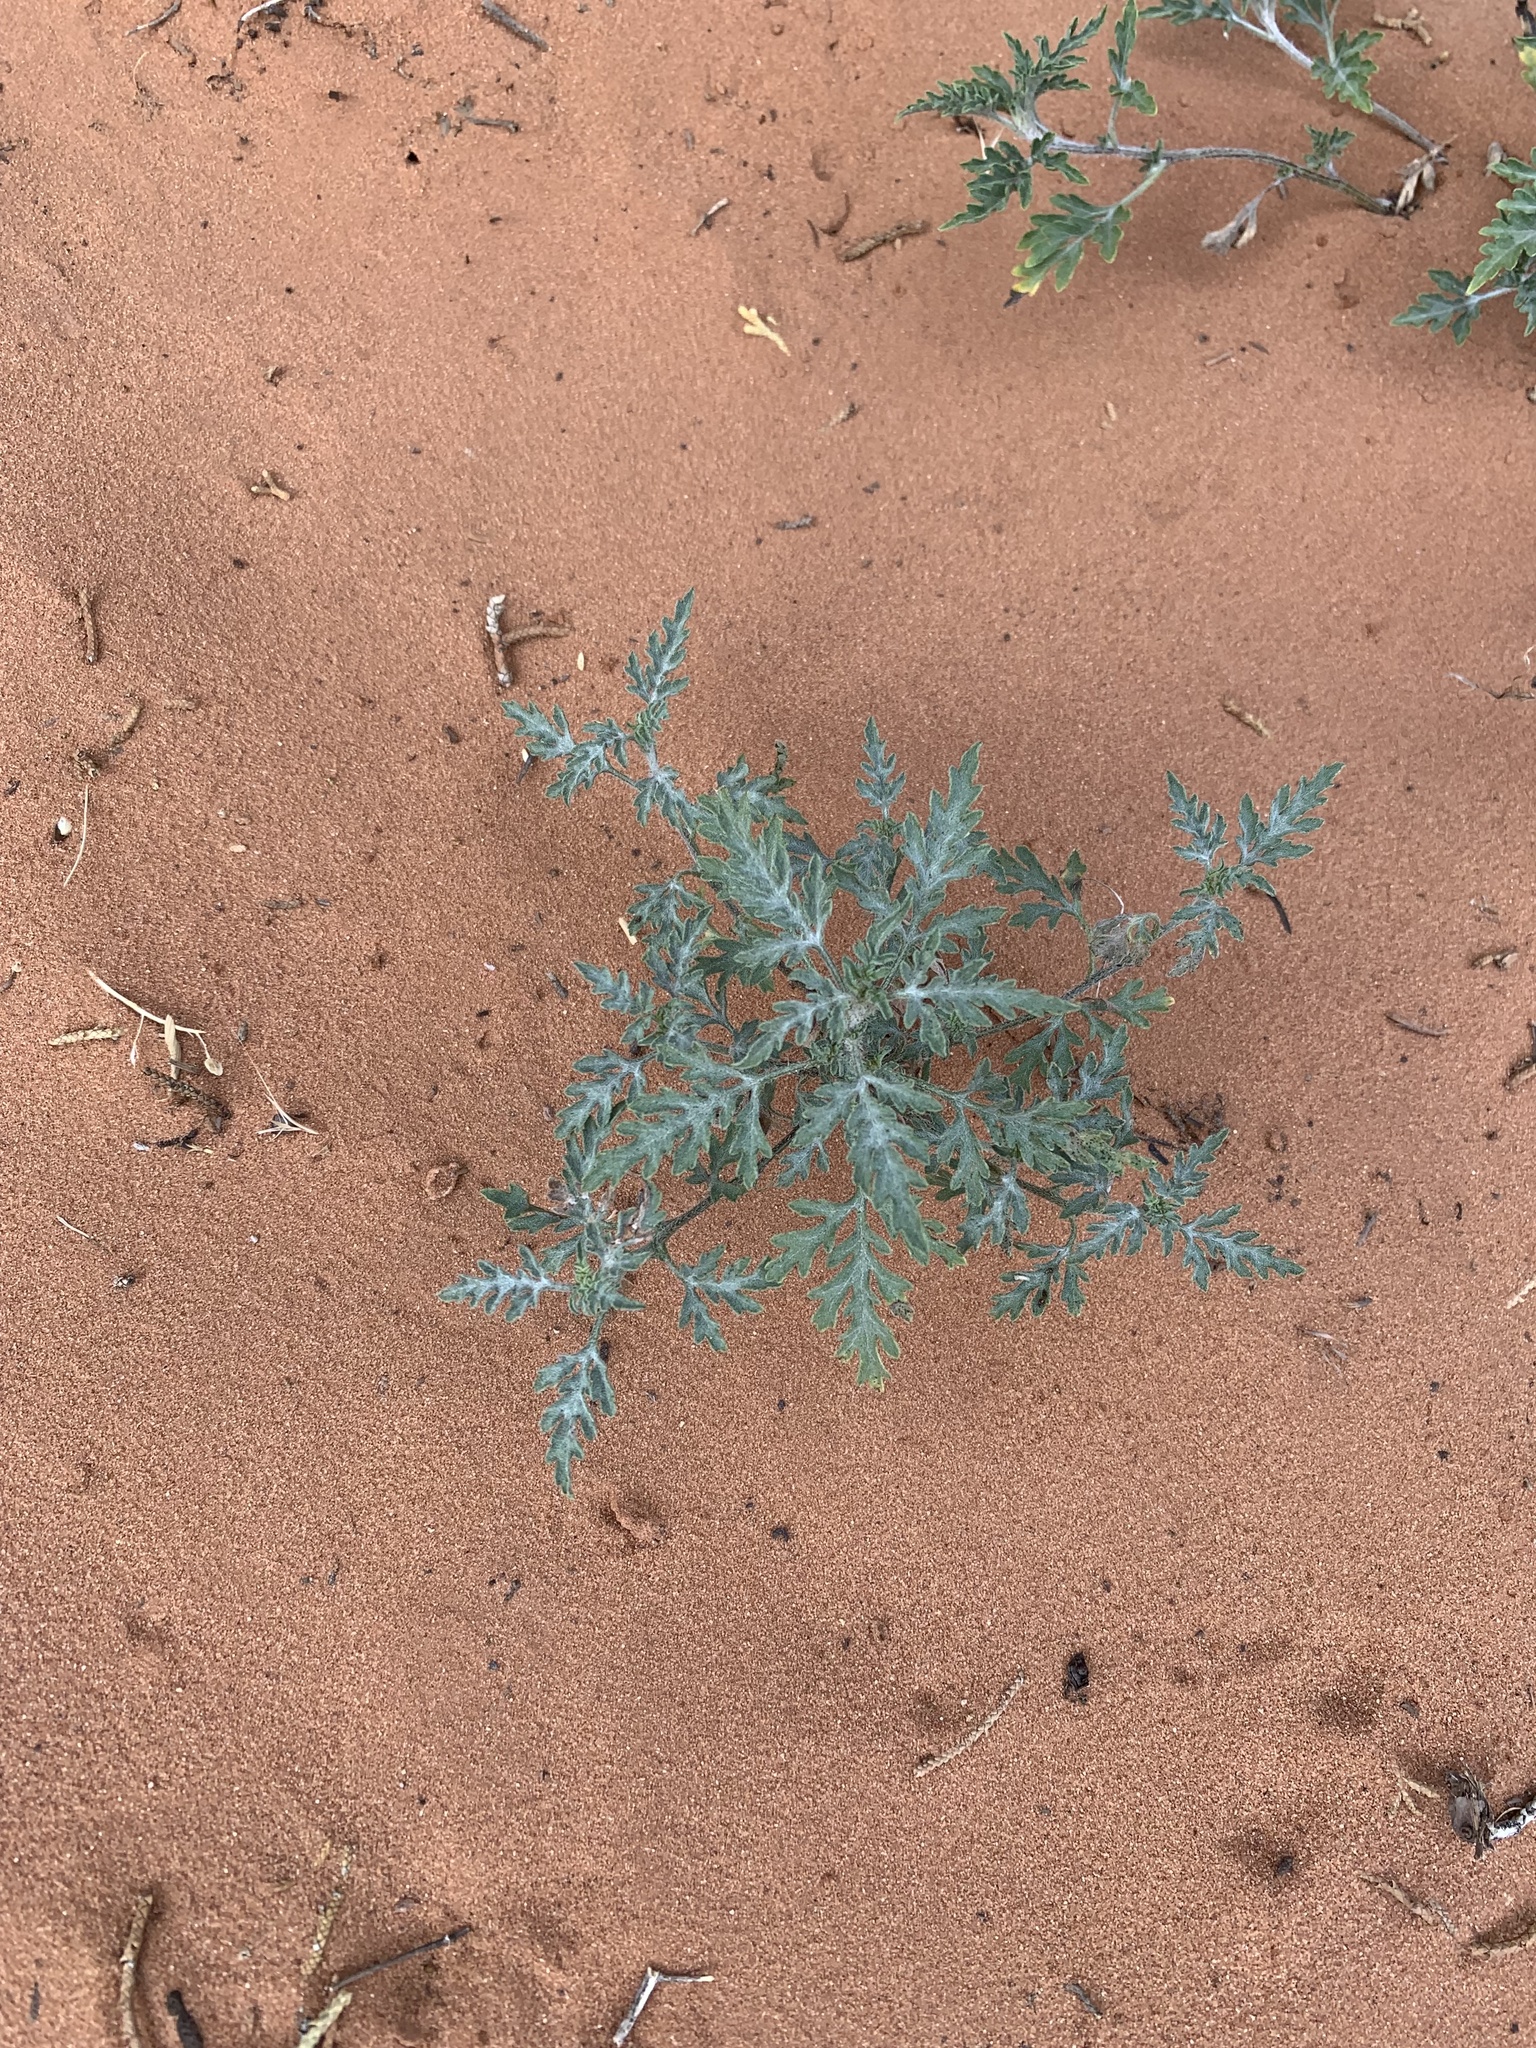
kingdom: Plantae
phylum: Tracheophyta
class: Magnoliopsida
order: Asterales
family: Asteraceae
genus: Ambrosia
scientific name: Ambrosia acanthicarpa
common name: Hooker's bur ragweed
